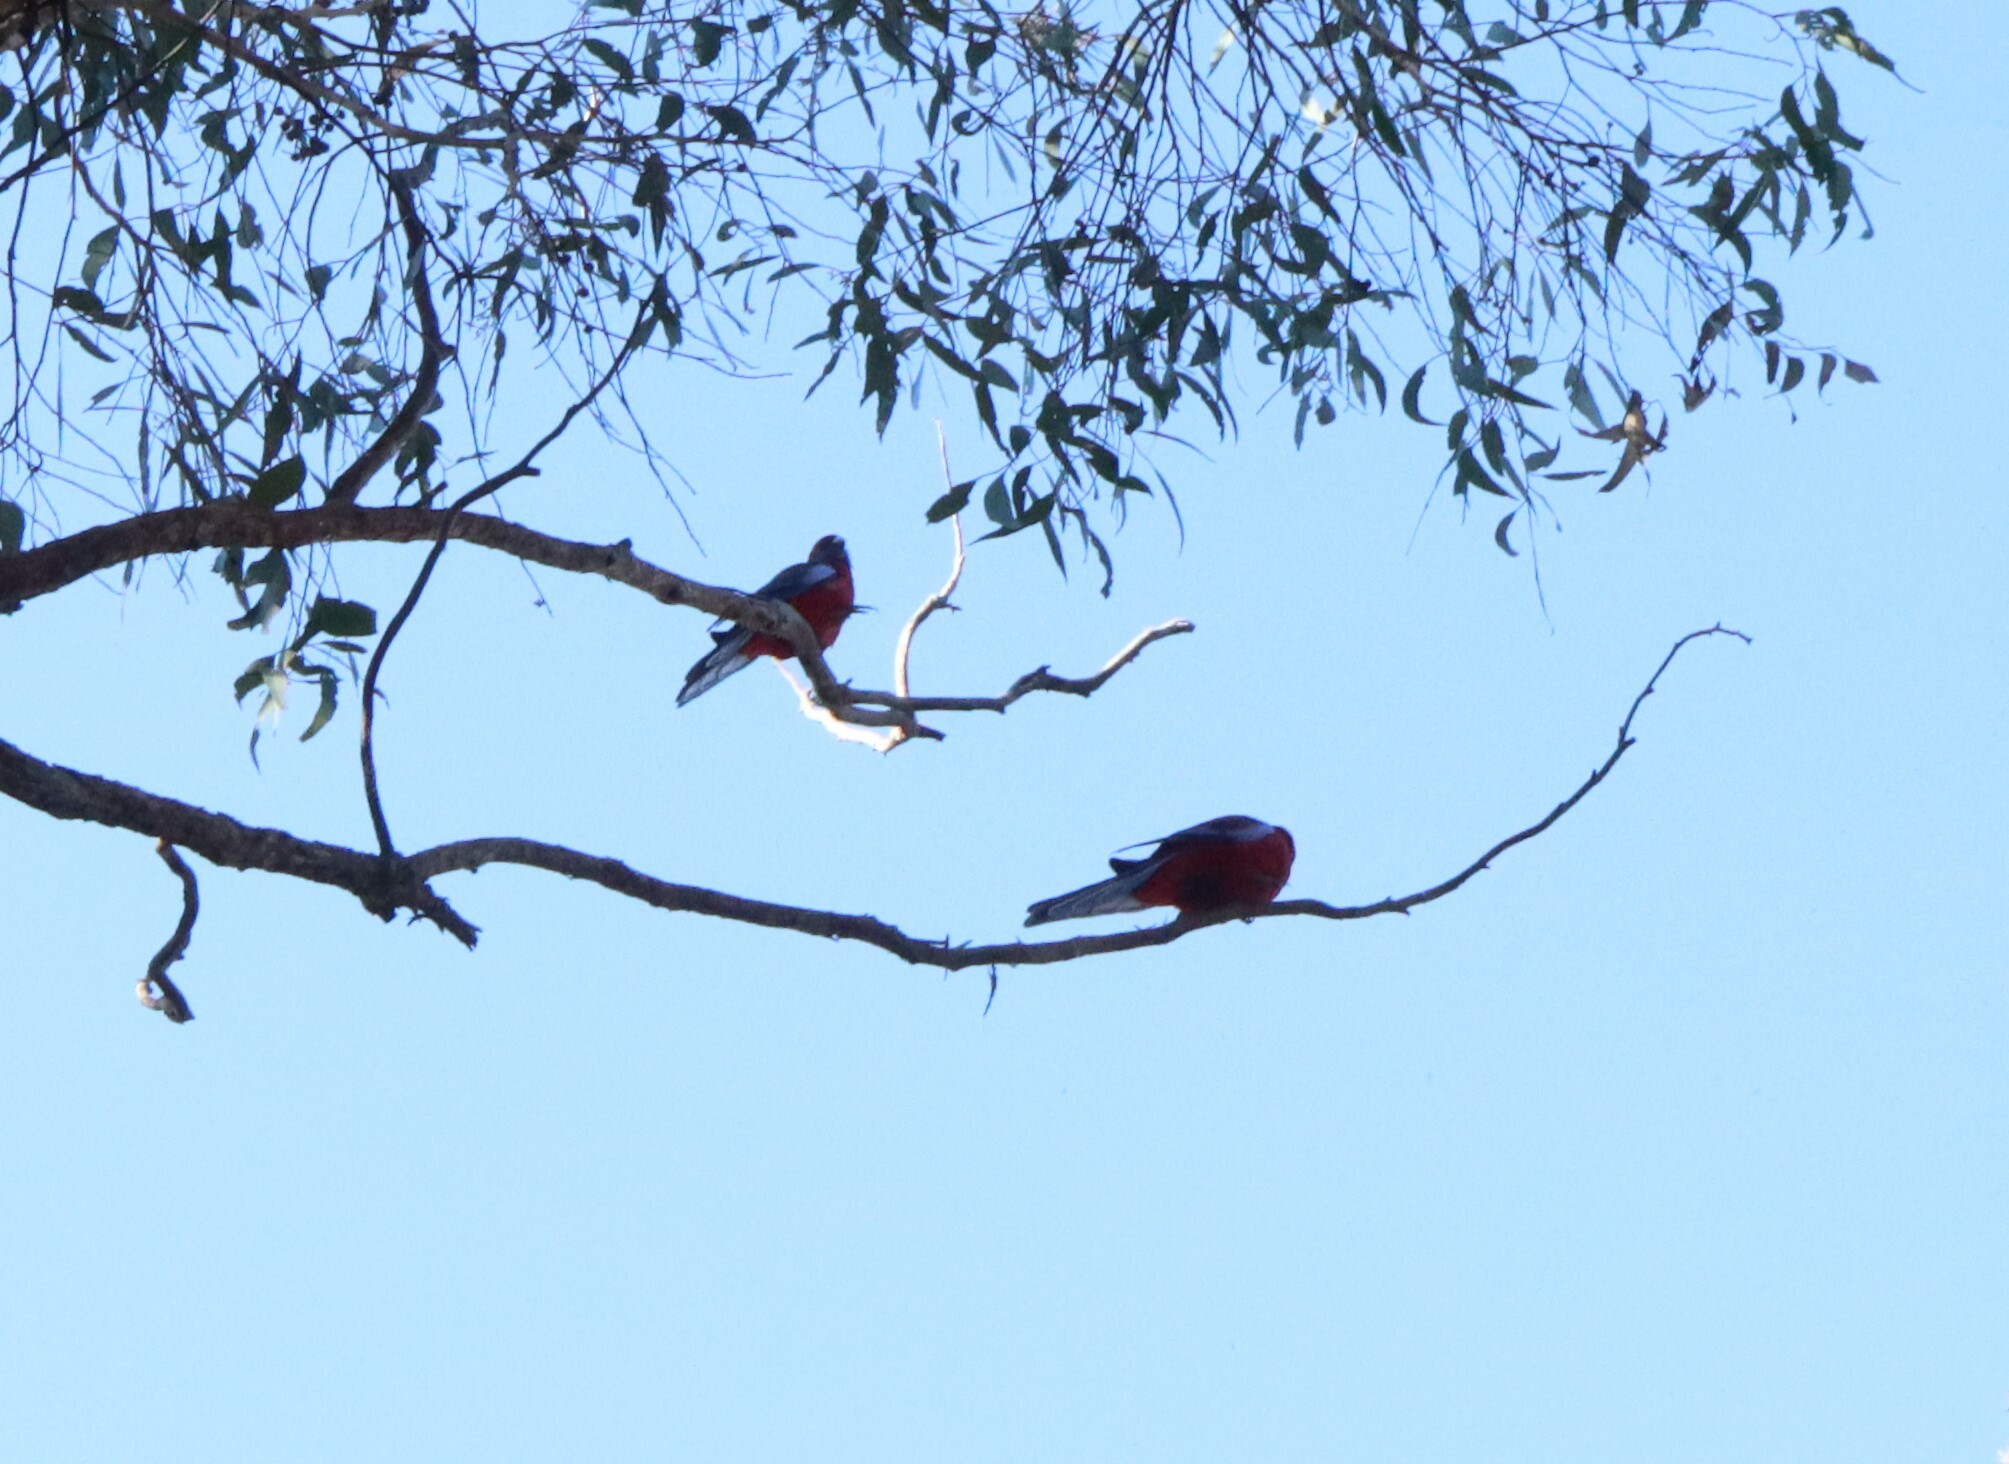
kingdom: Animalia
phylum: Chordata
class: Aves
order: Psittaciformes
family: Psittacidae
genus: Platycercus
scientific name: Platycercus elegans
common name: Crimson rosella
